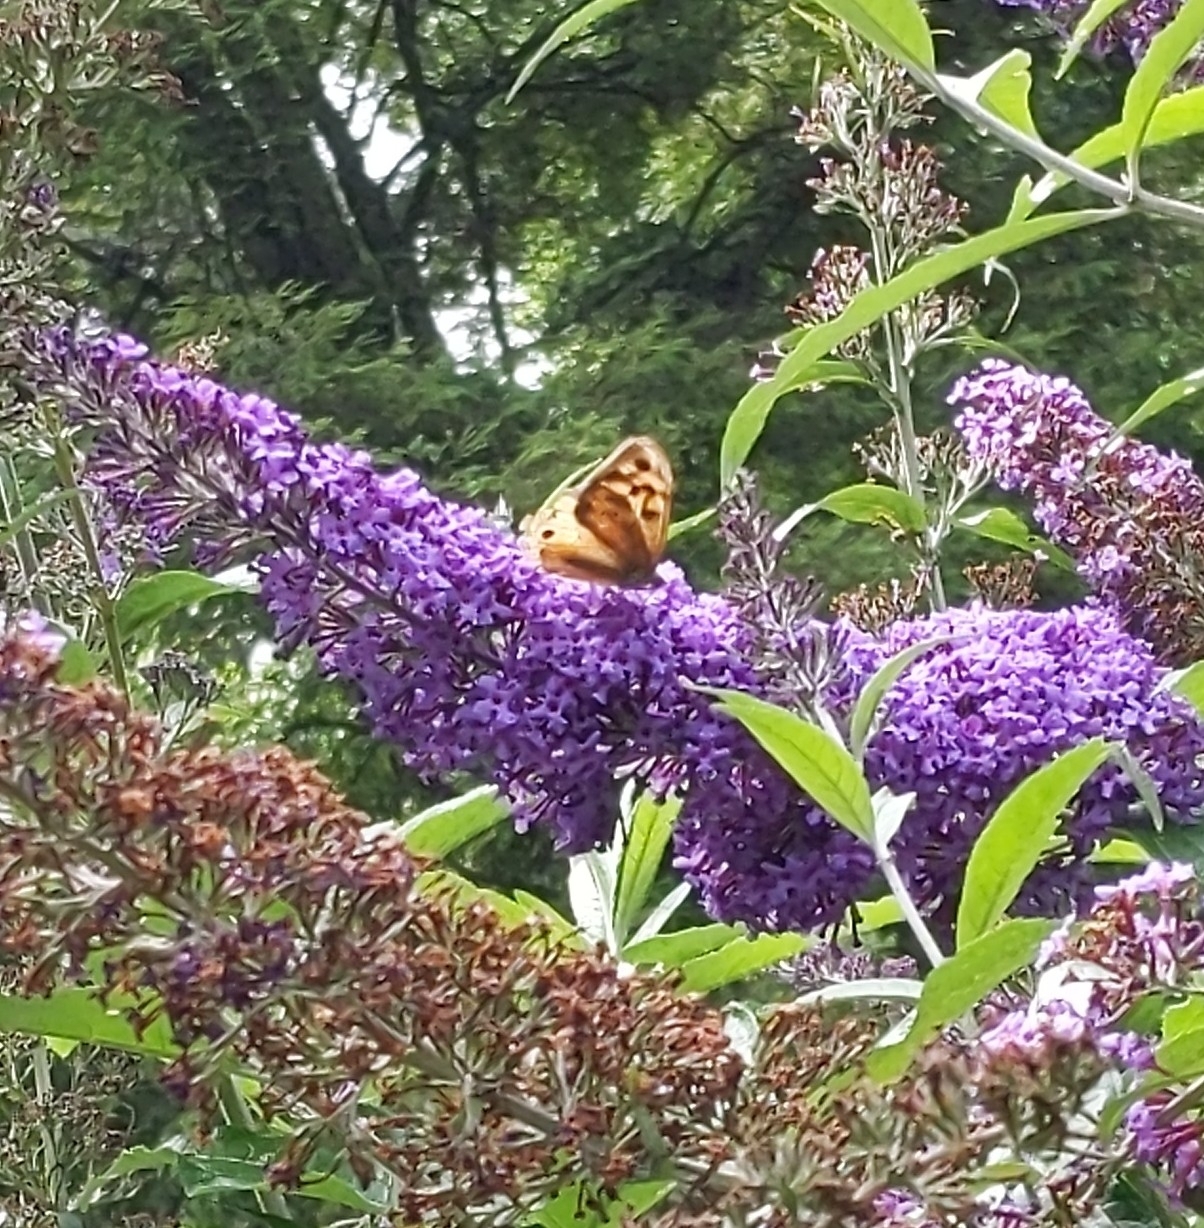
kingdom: Animalia
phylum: Arthropoda
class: Insecta
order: Lepidoptera
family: Nymphalidae
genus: Heteronympha
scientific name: Heteronympha merope
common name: Common brown
